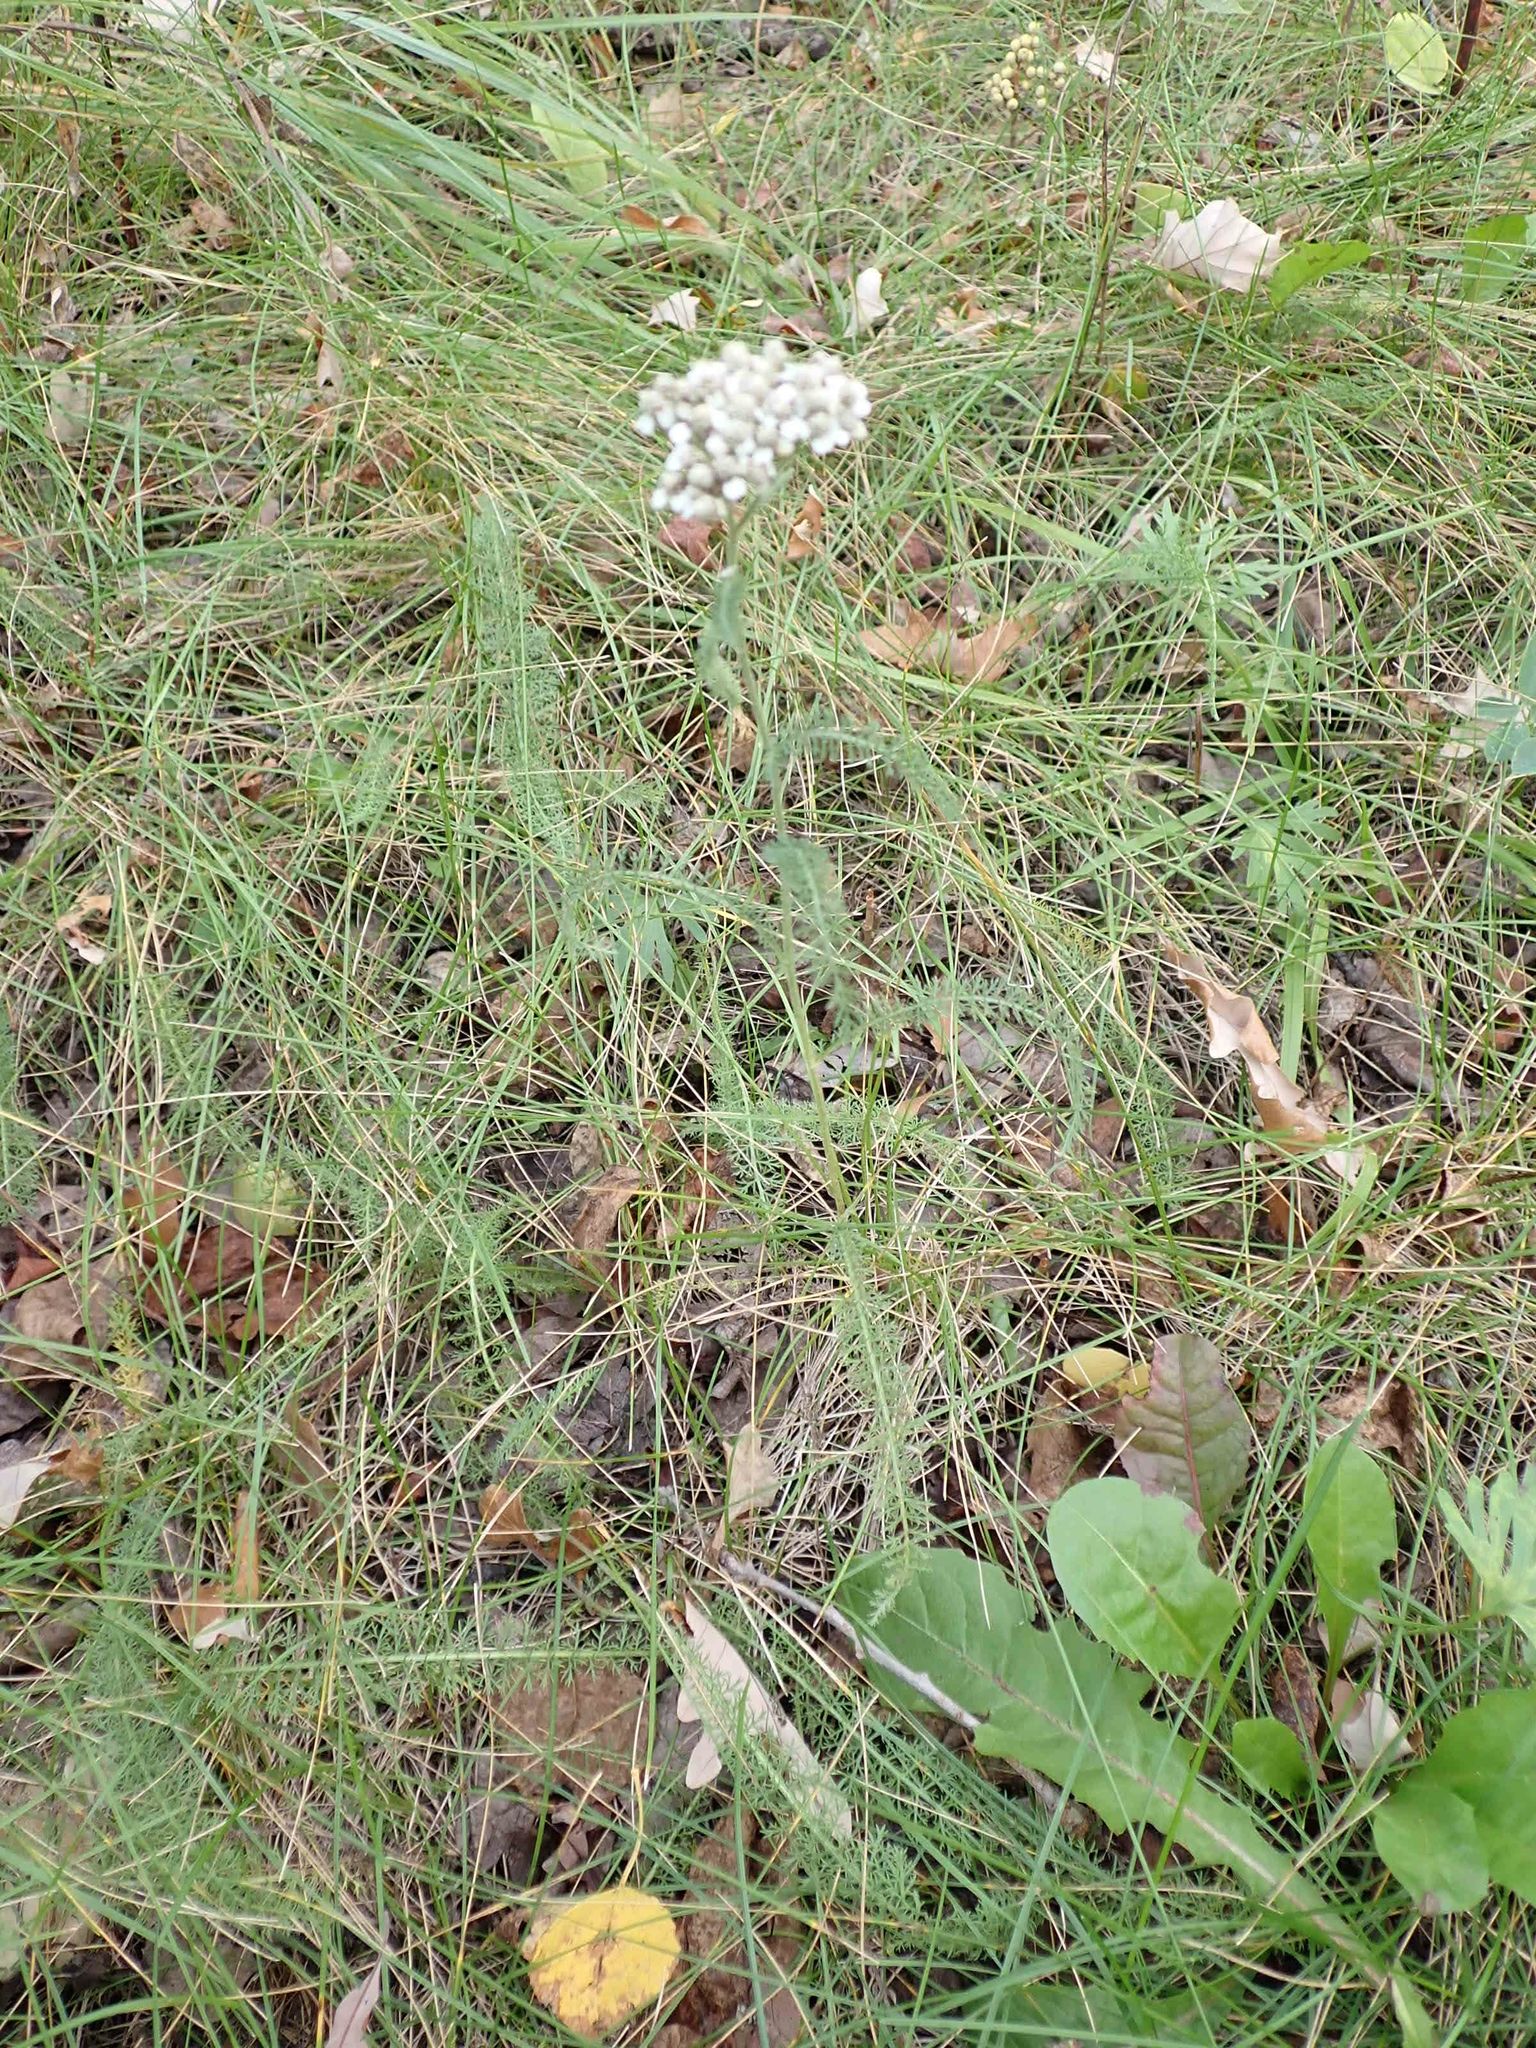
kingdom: Plantae
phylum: Tracheophyta
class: Magnoliopsida
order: Asterales
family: Asteraceae
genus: Achillea
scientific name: Achillea millefolium
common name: Yarrow
